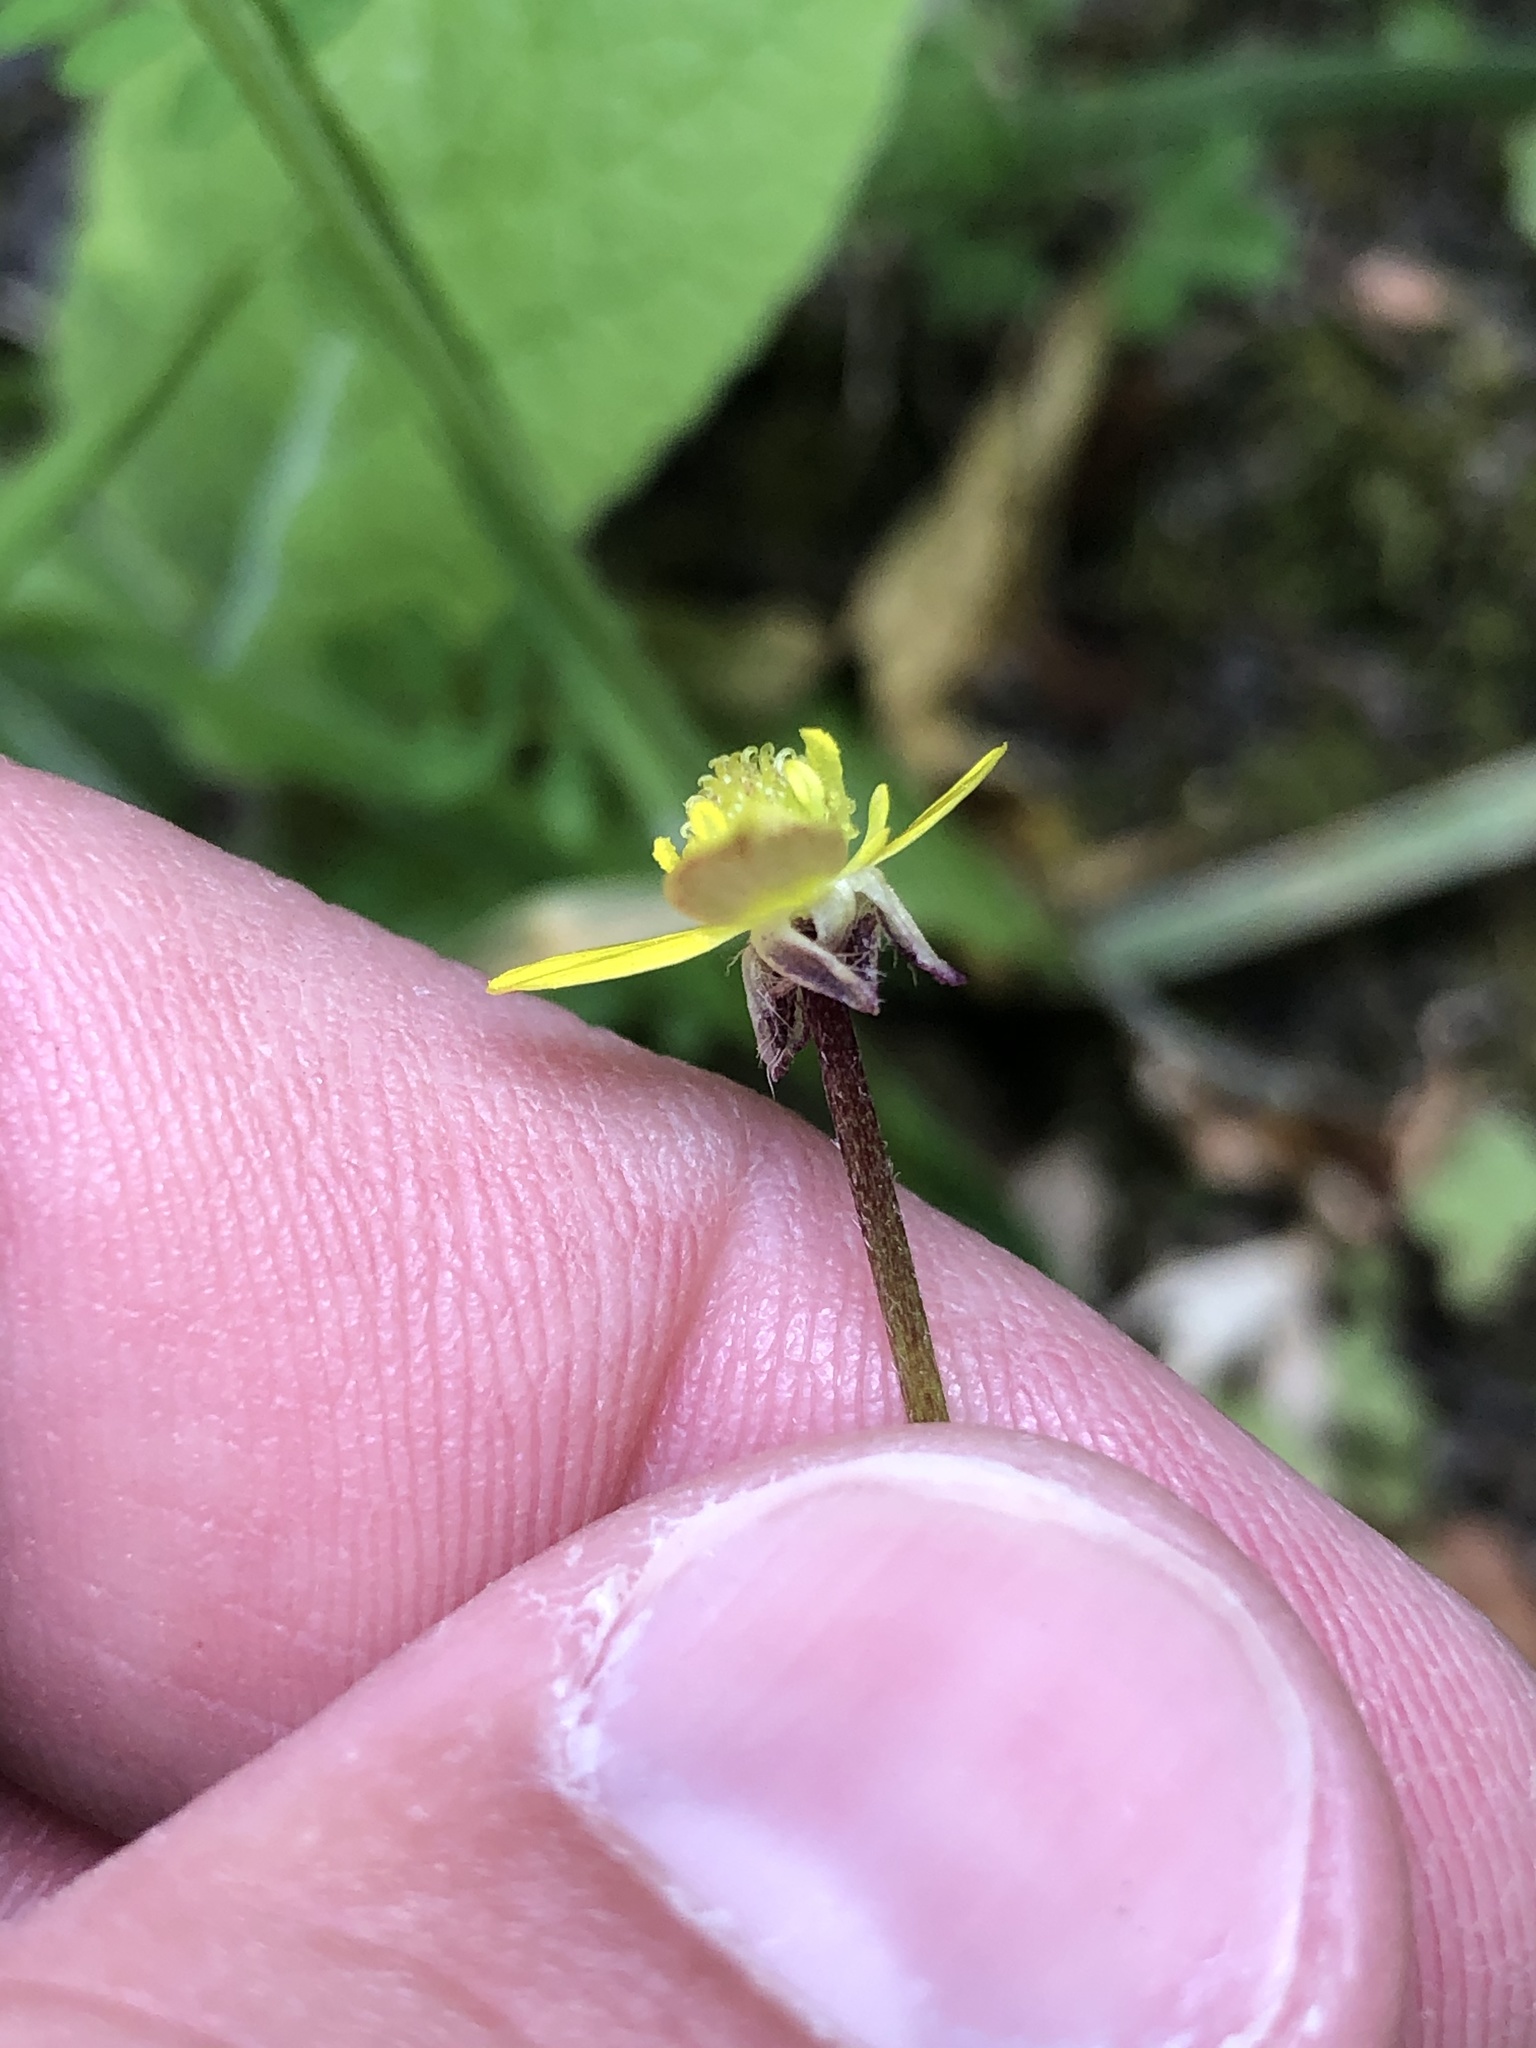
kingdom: Plantae
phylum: Tracheophyta
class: Magnoliopsida
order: Ranunculales
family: Ranunculaceae
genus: Ranunculus
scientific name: Ranunculus reflexus
